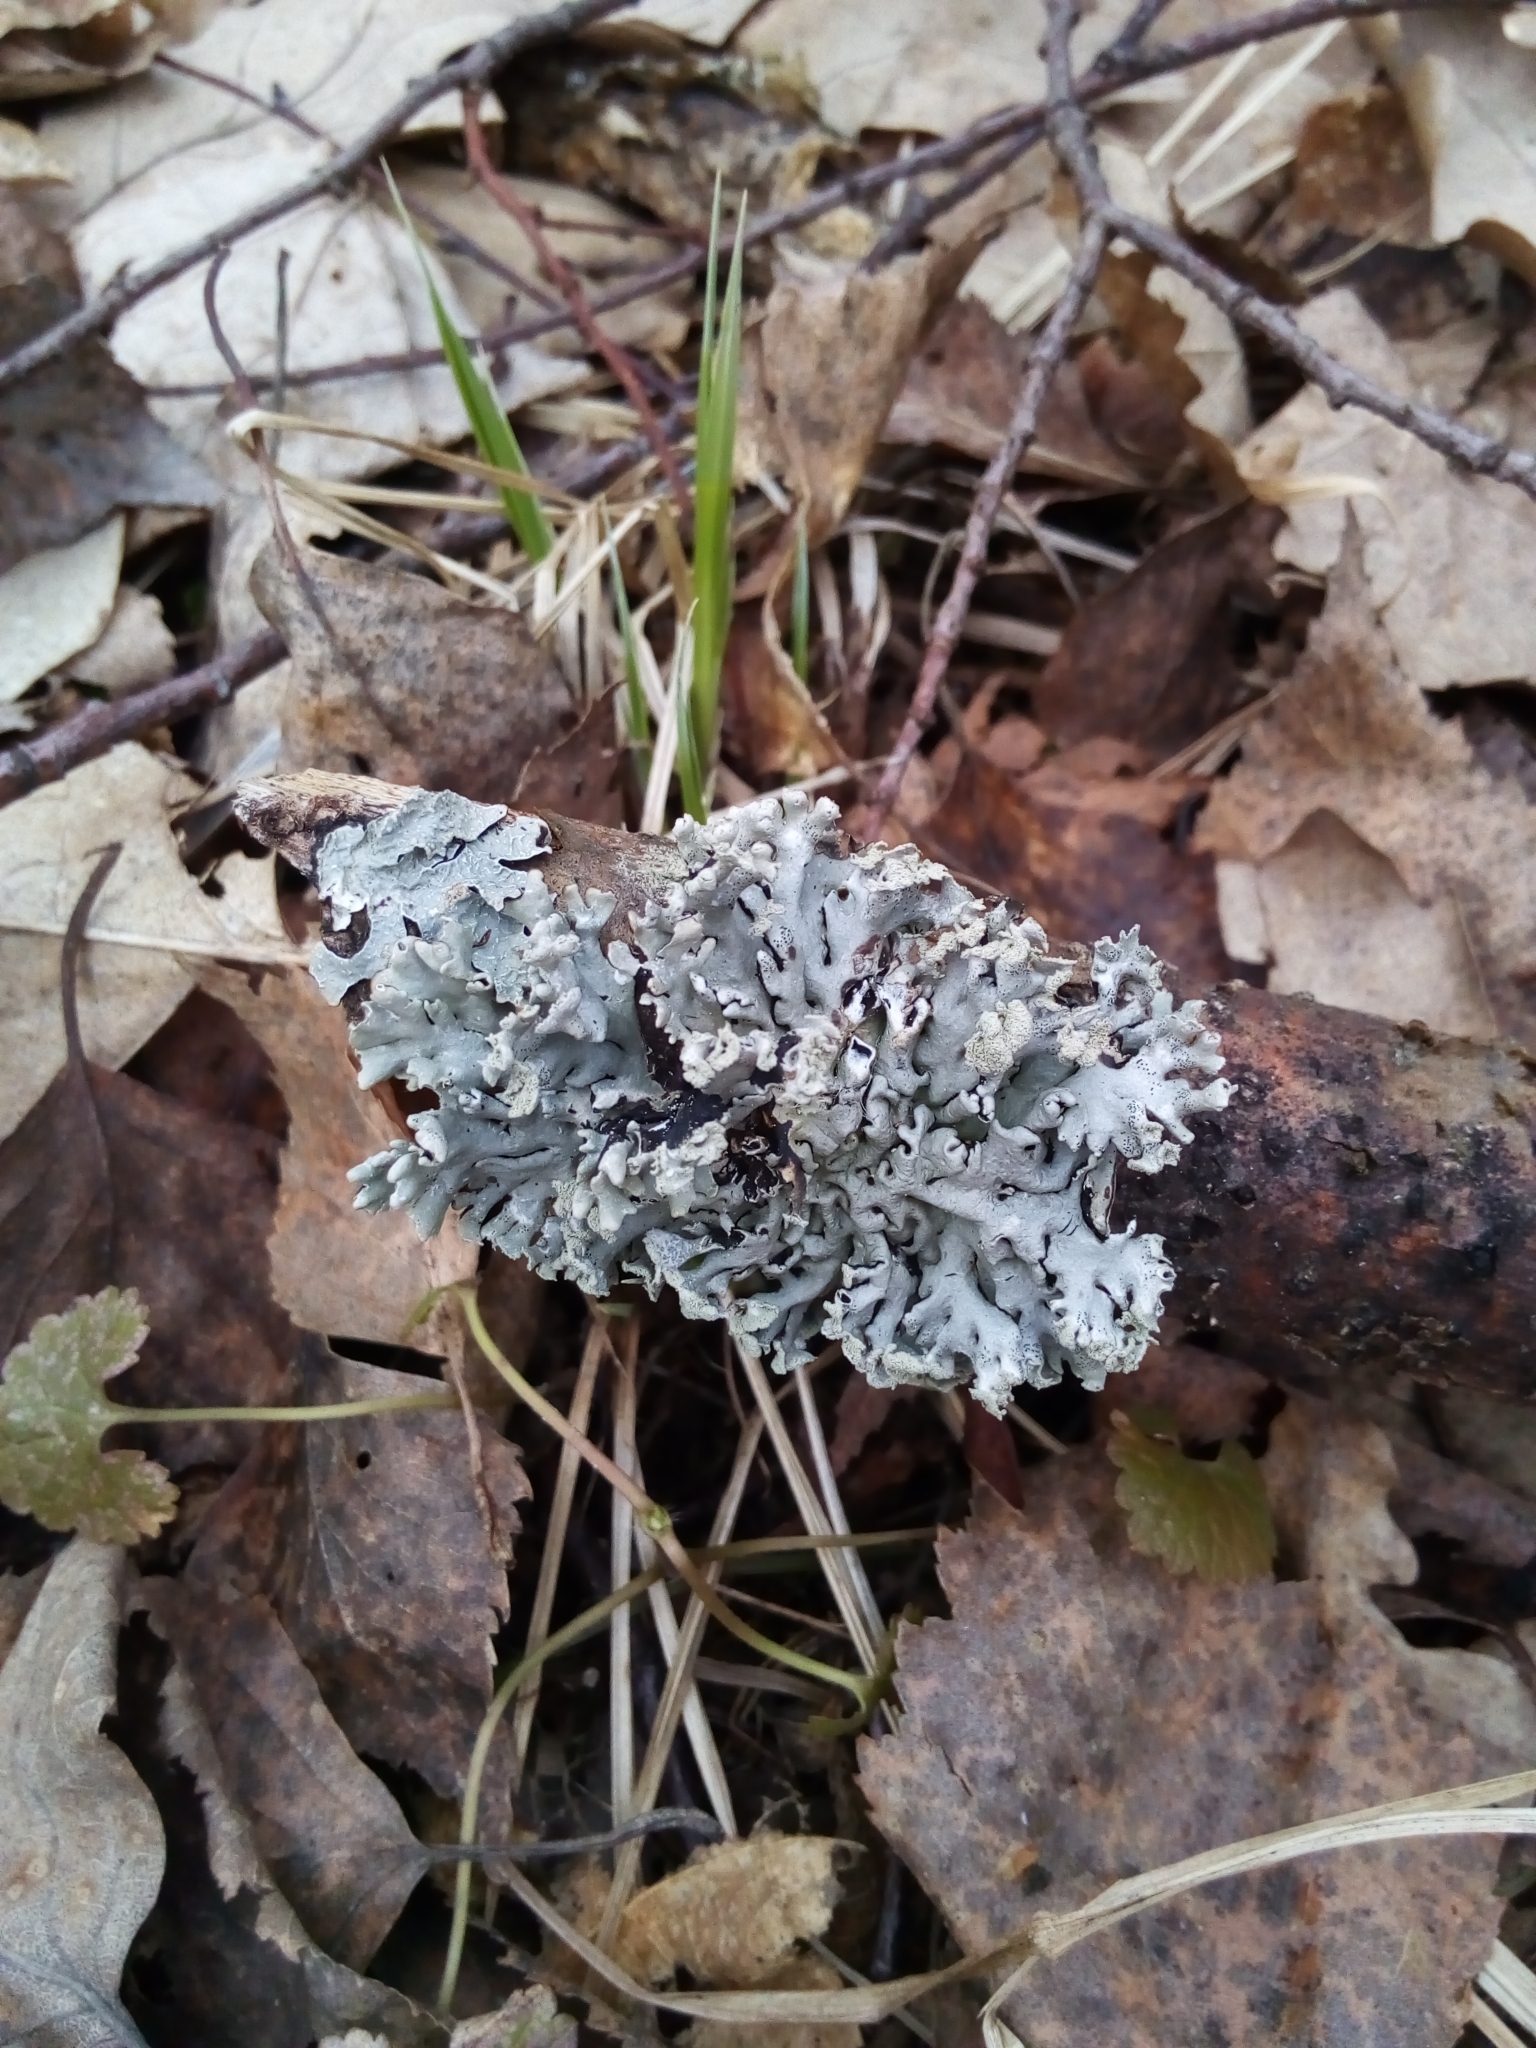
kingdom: Fungi
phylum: Ascomycota
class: Lecanoromycetes
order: Lecanorales
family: Parmeliaceae
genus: Hypogymnia
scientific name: Hypogymnia physodes
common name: Dark crottle
